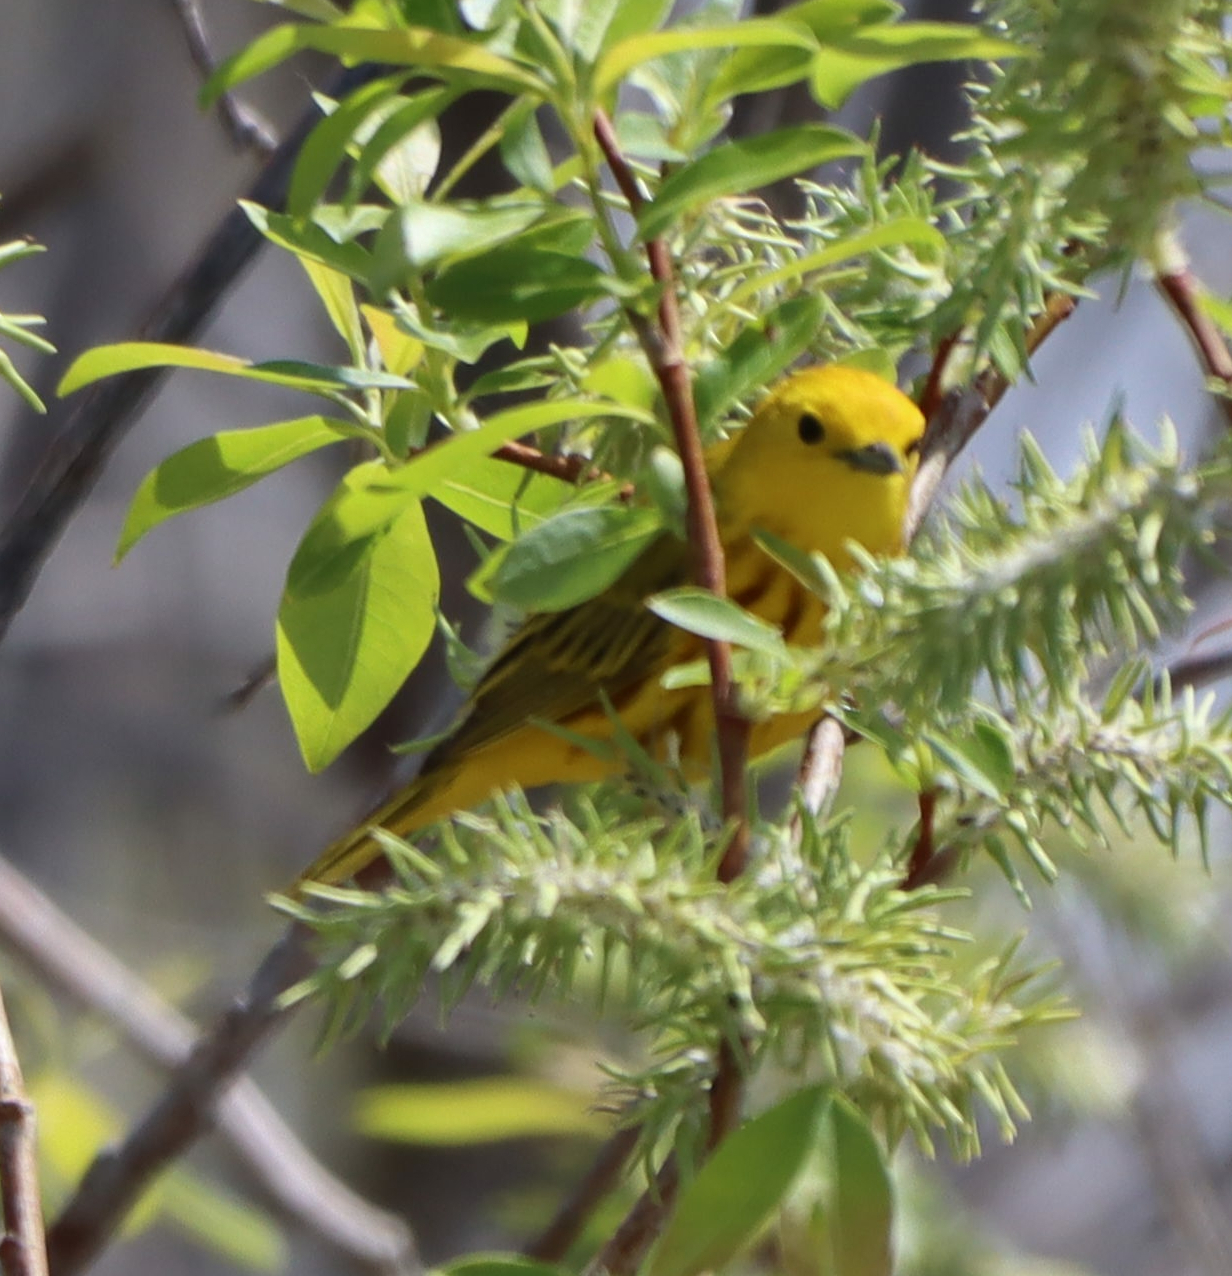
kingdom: Animalia
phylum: Chordata
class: Aves
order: Passeriformes
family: Parulidae
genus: Setophaga
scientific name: Setophaga petechia
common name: Yellow warbler
